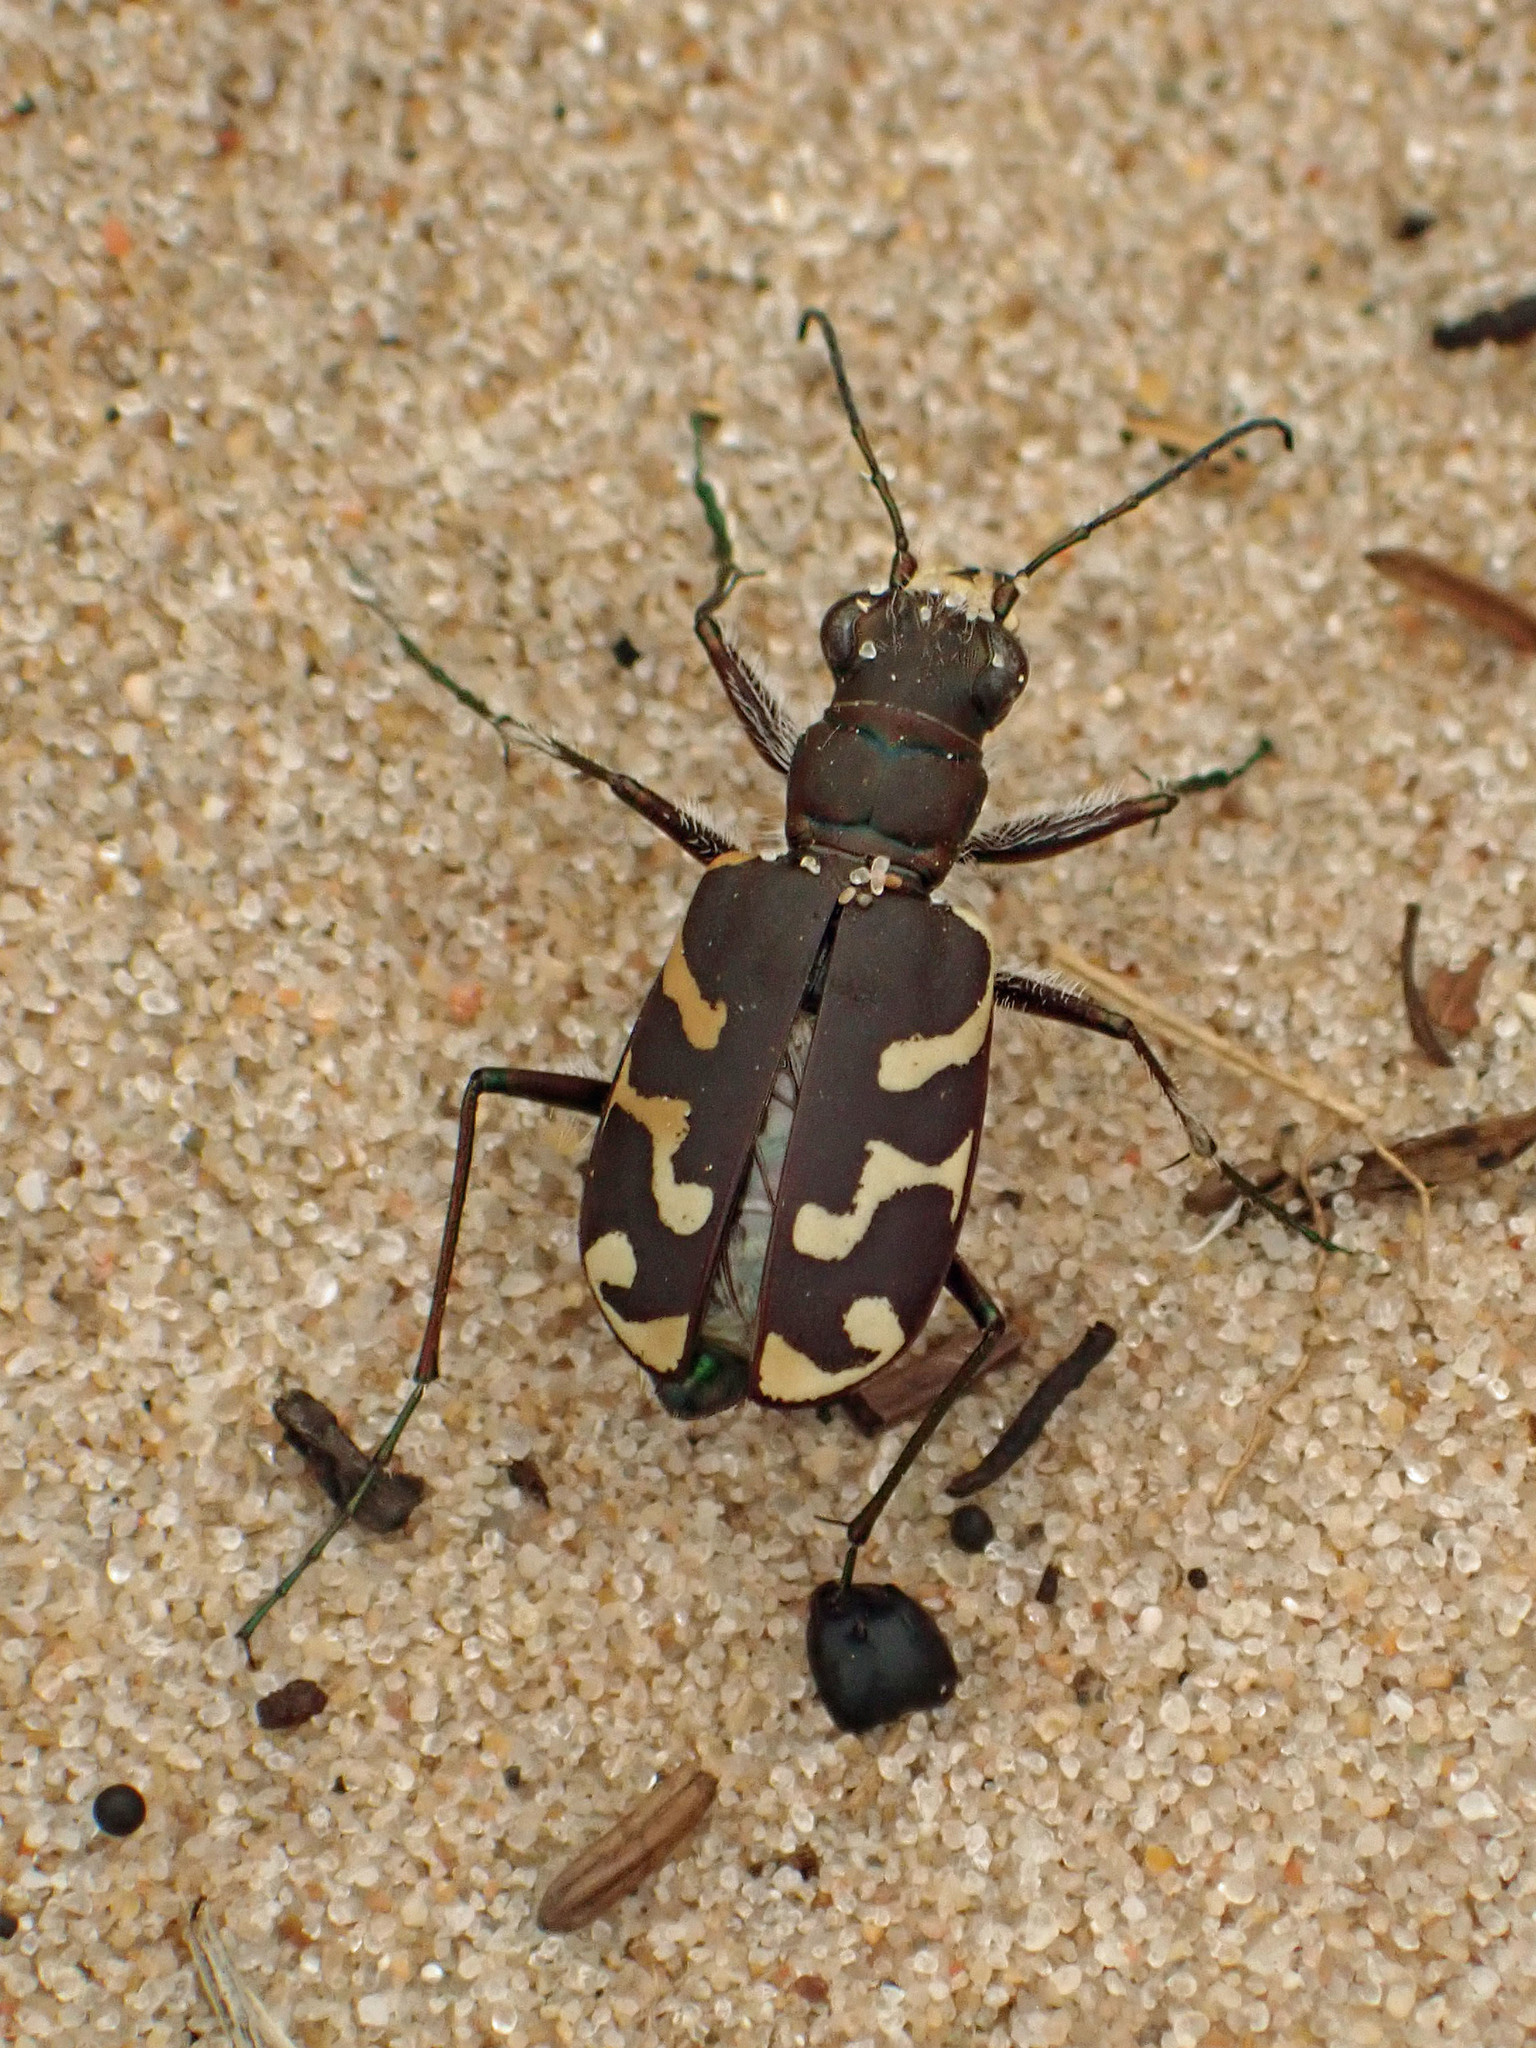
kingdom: Animalia
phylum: Arthropoda
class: Insecta
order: Coleoptera
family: Carabidae
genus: Cicindela
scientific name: Cicindela tranquebarica
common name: Oblique-lined tiger beetle
